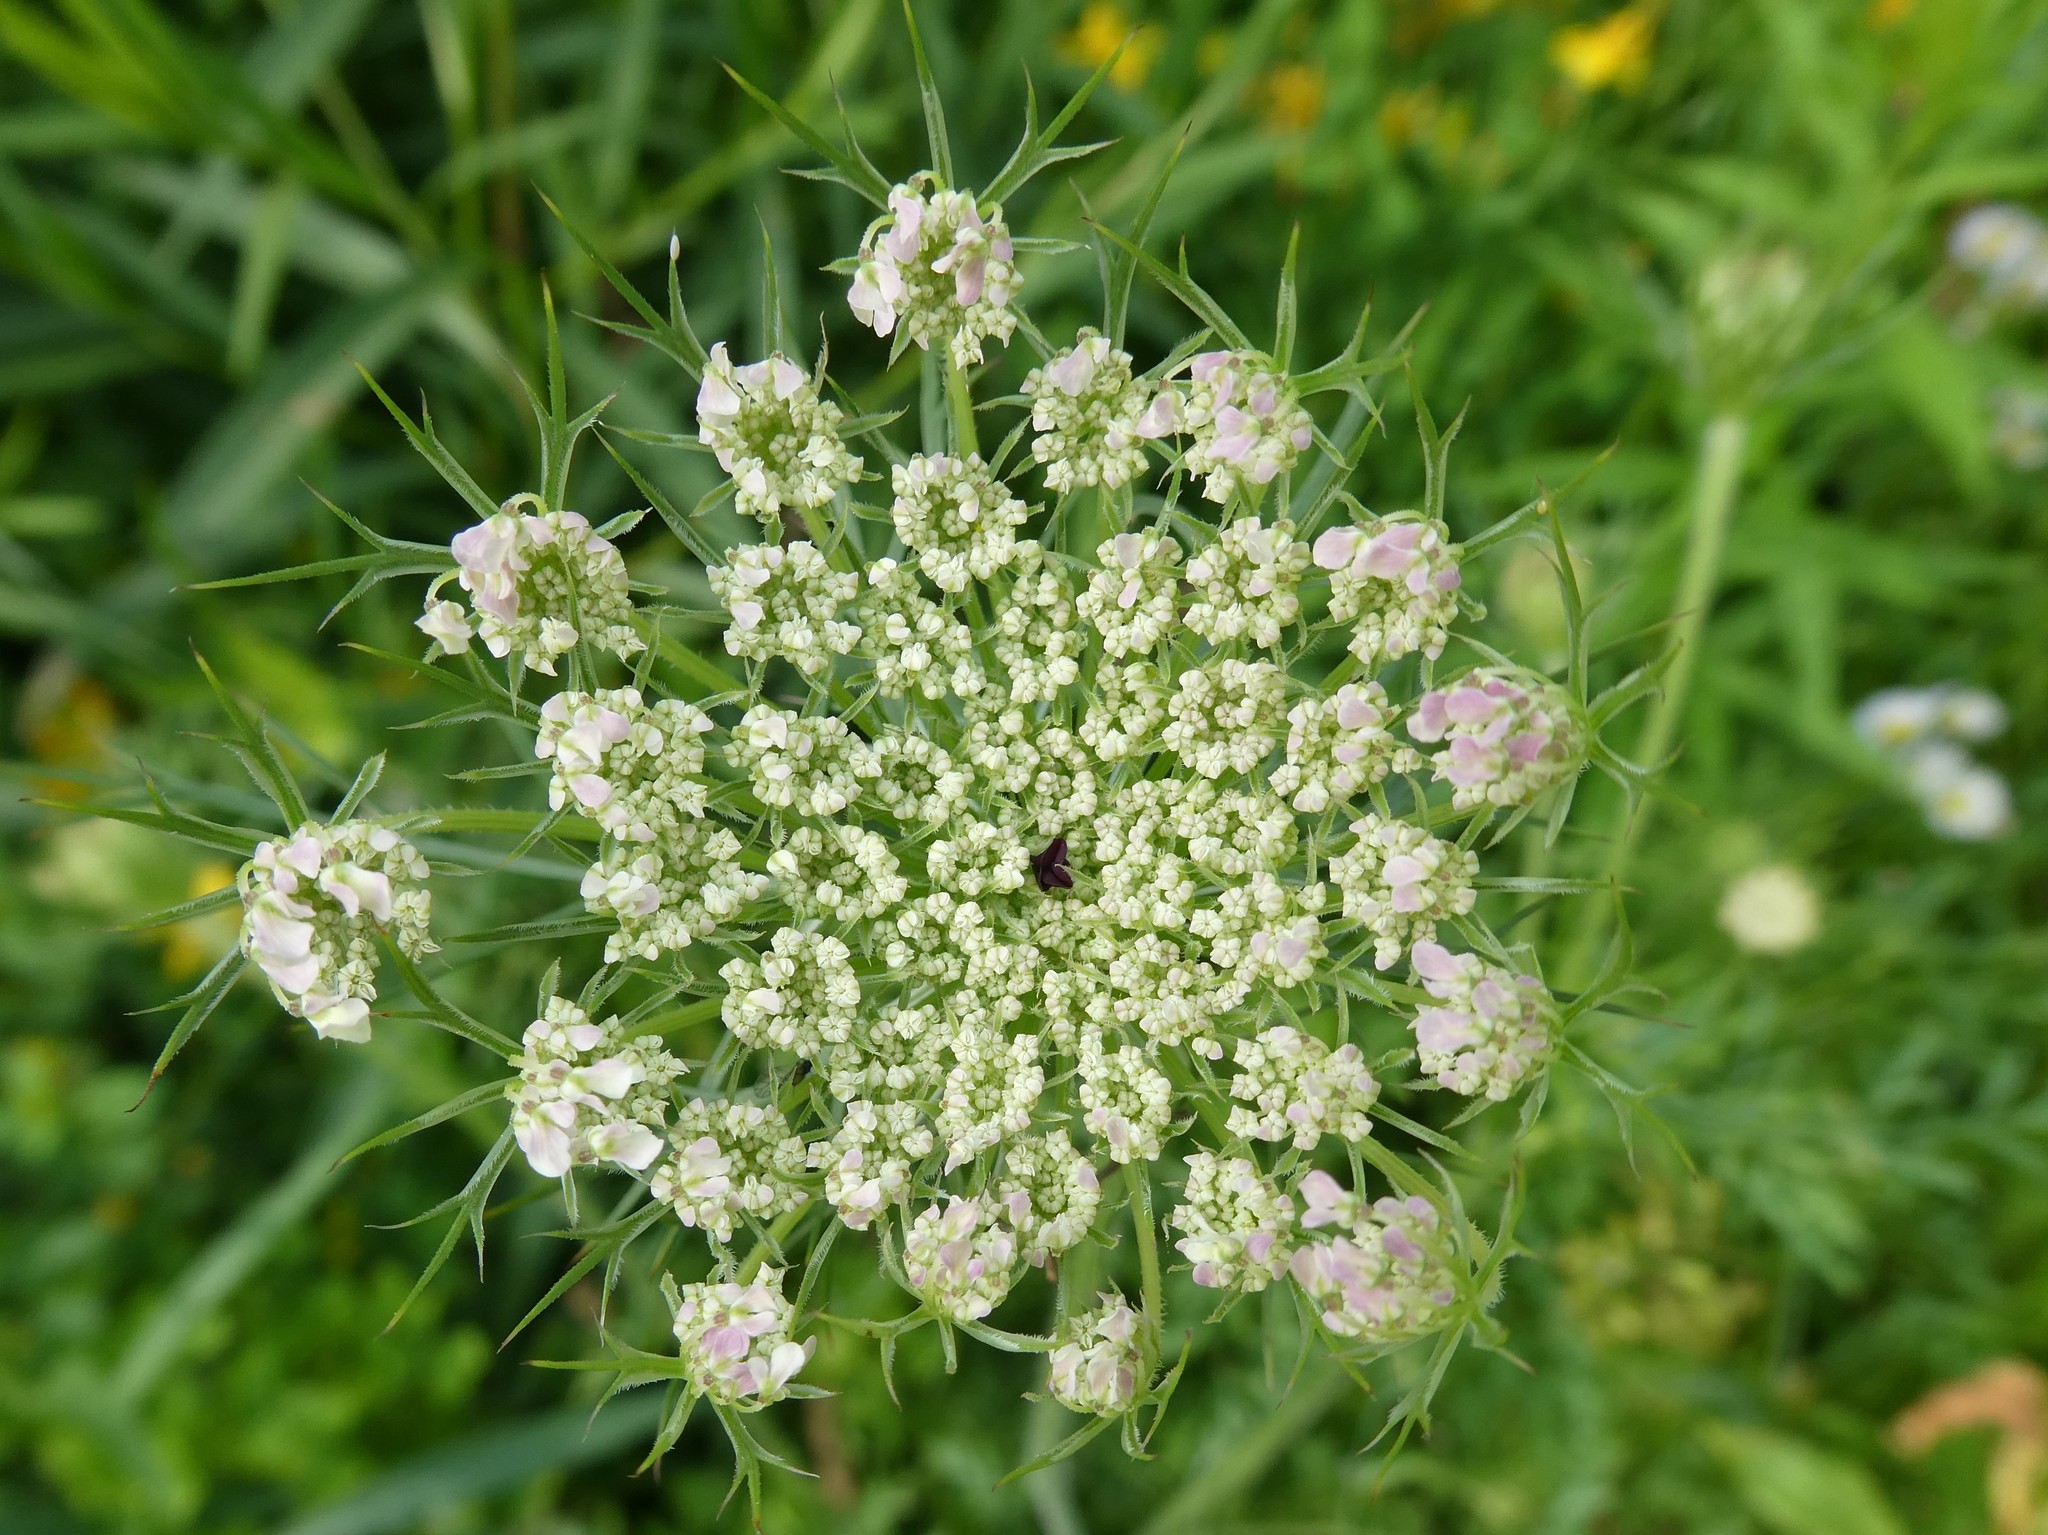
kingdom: Plantae
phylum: Tracheophyta
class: Magnoliopsida
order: Apiales
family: Apiaceae
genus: Daucus
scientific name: Daucus carota
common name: Wild carrot
